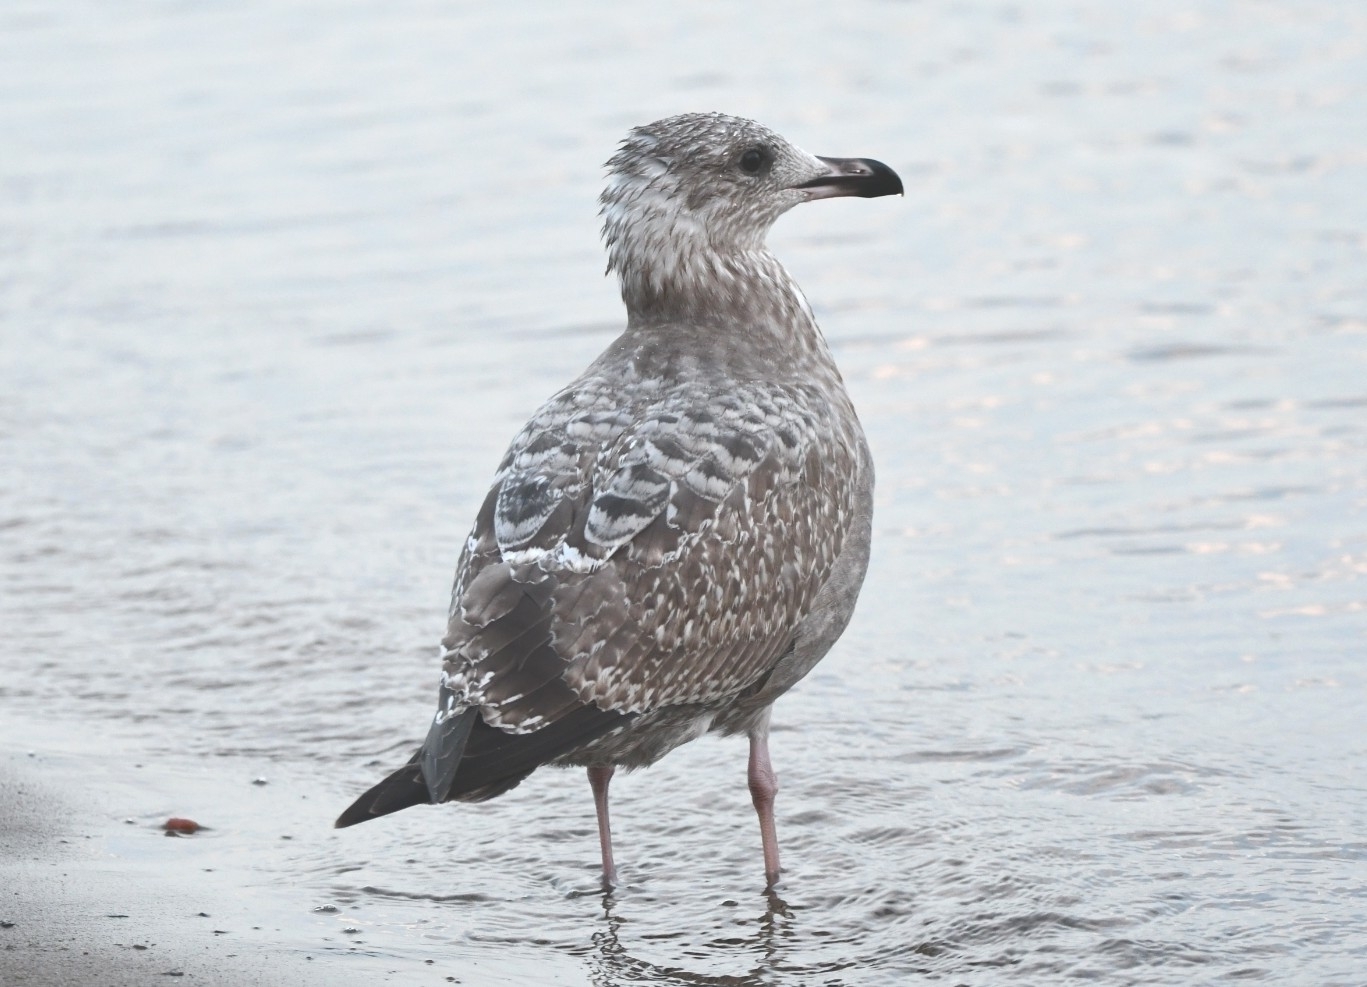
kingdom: Animalia
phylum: Chordata
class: Aves
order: Charadriiformes
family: Laridae
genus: Larus
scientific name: Larus argentatus
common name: Herring gull
